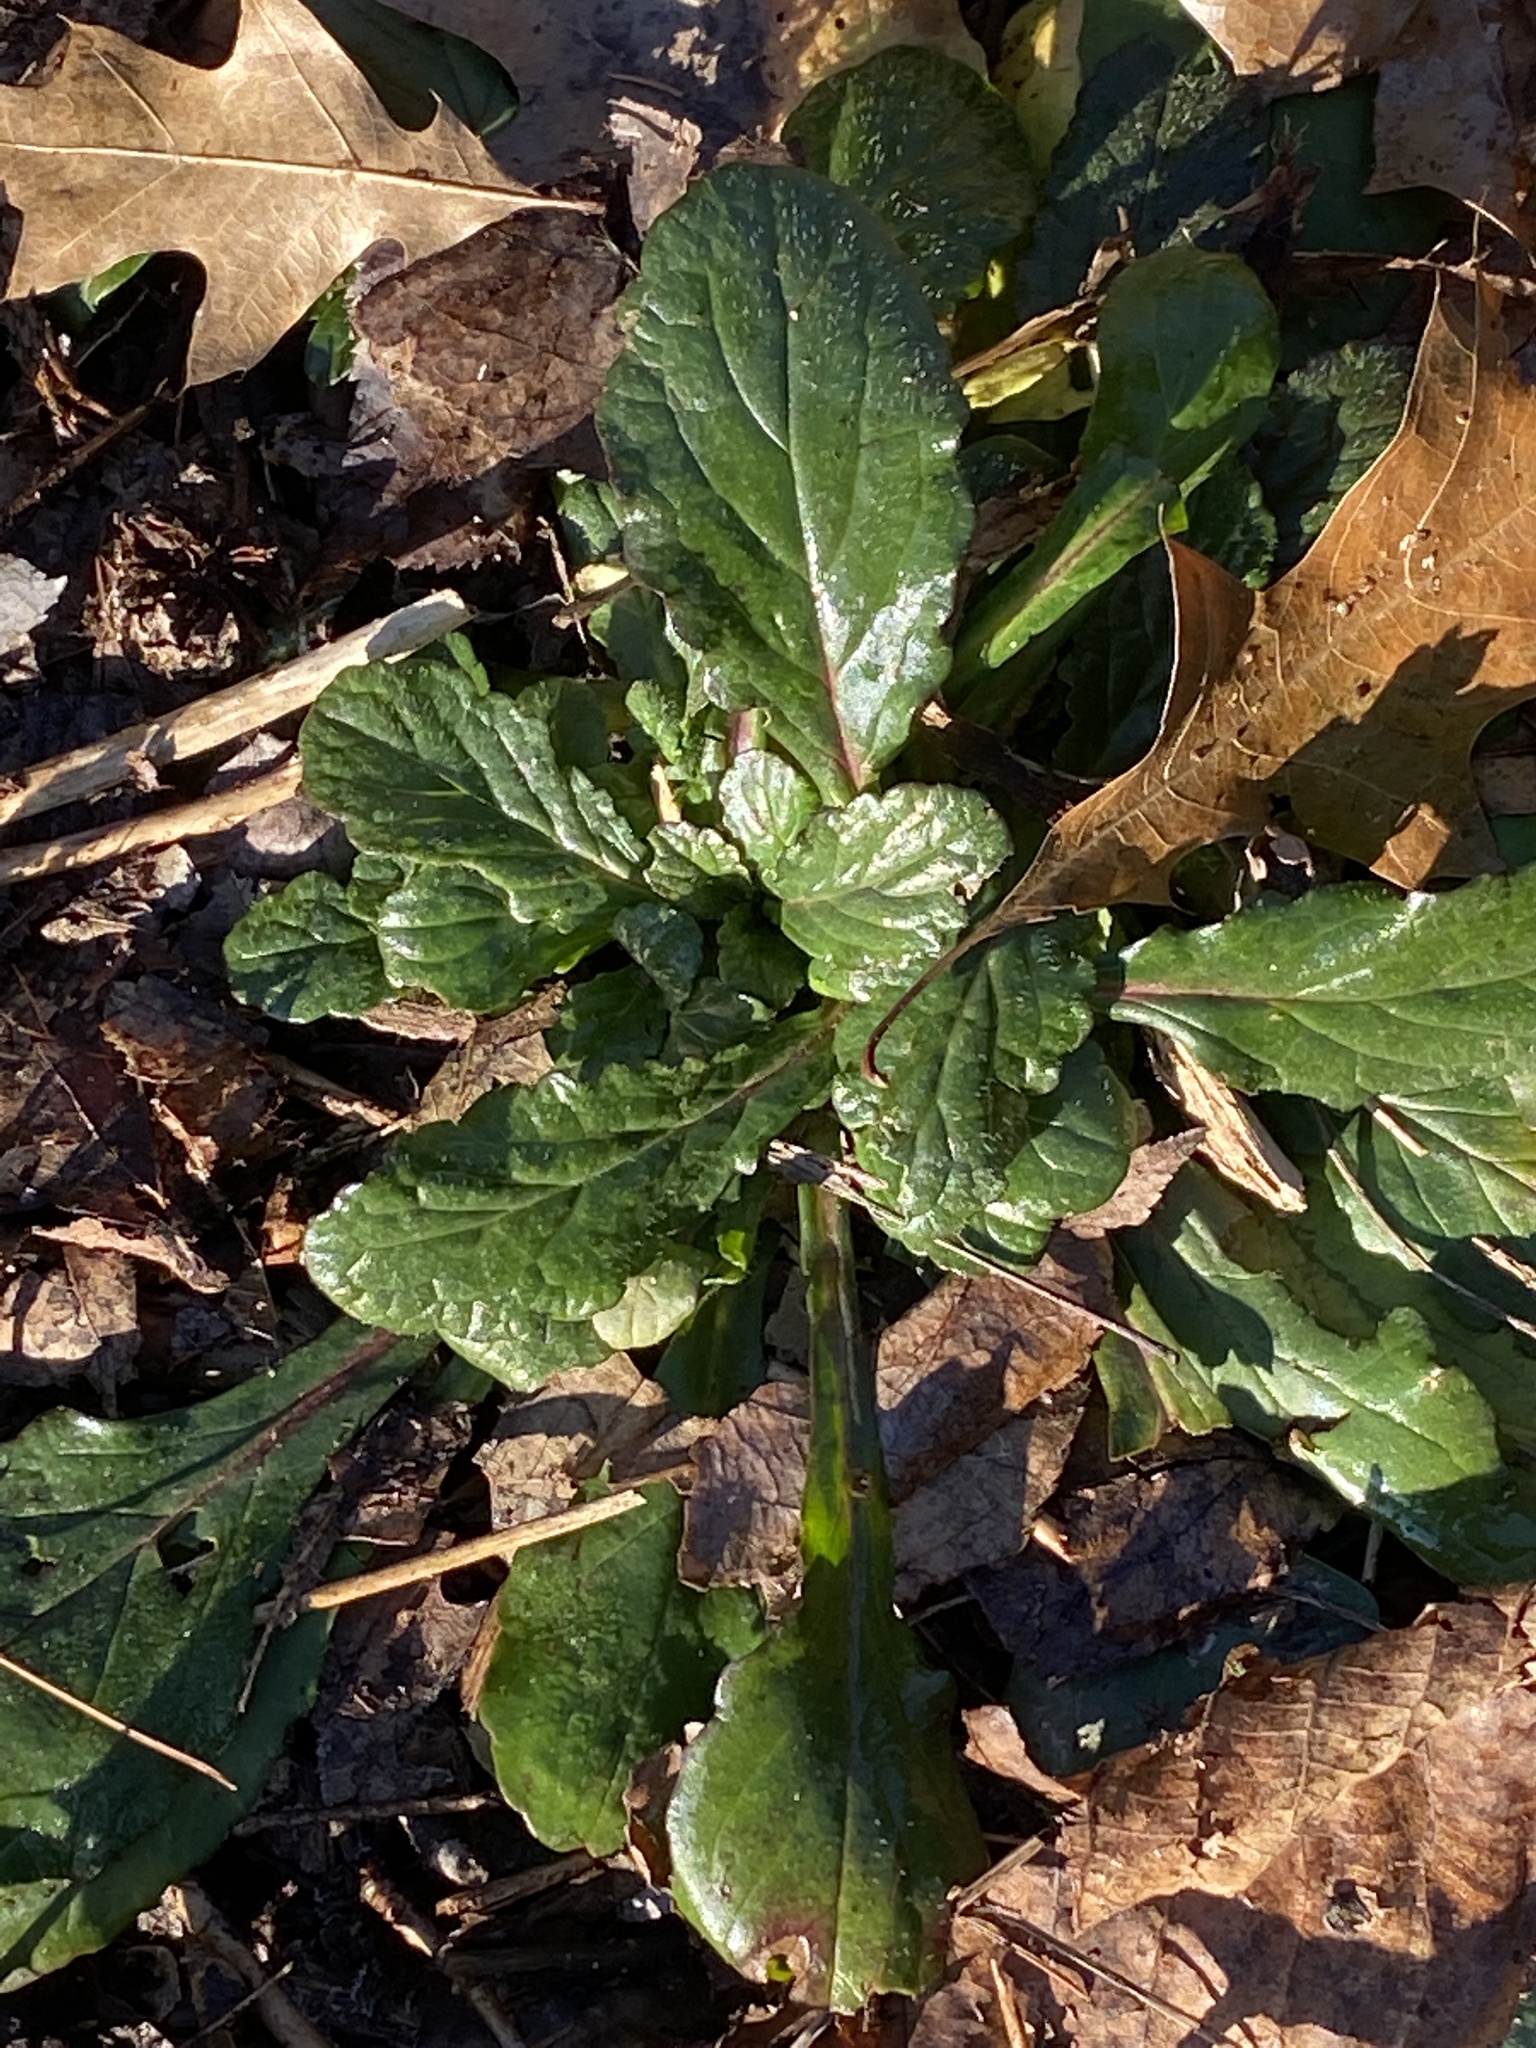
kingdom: Plantae
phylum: Tracheophyta
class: Magnoliopsida
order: Lamiales
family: Lamiaceae
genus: Ajuga
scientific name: Ajuga reptans
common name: Bugle
